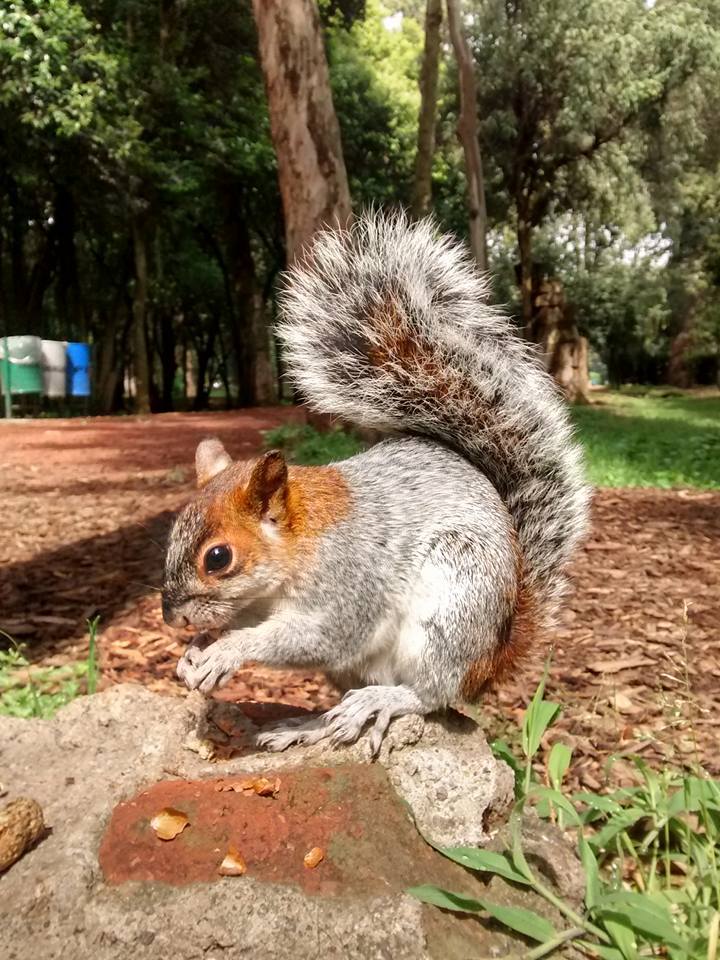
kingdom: Animalia
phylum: Chordata
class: Mammalia
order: Rodentia
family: Sciuridae
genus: Sciurus
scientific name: Sciurus aureogaster
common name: Red-bellied squirrel
